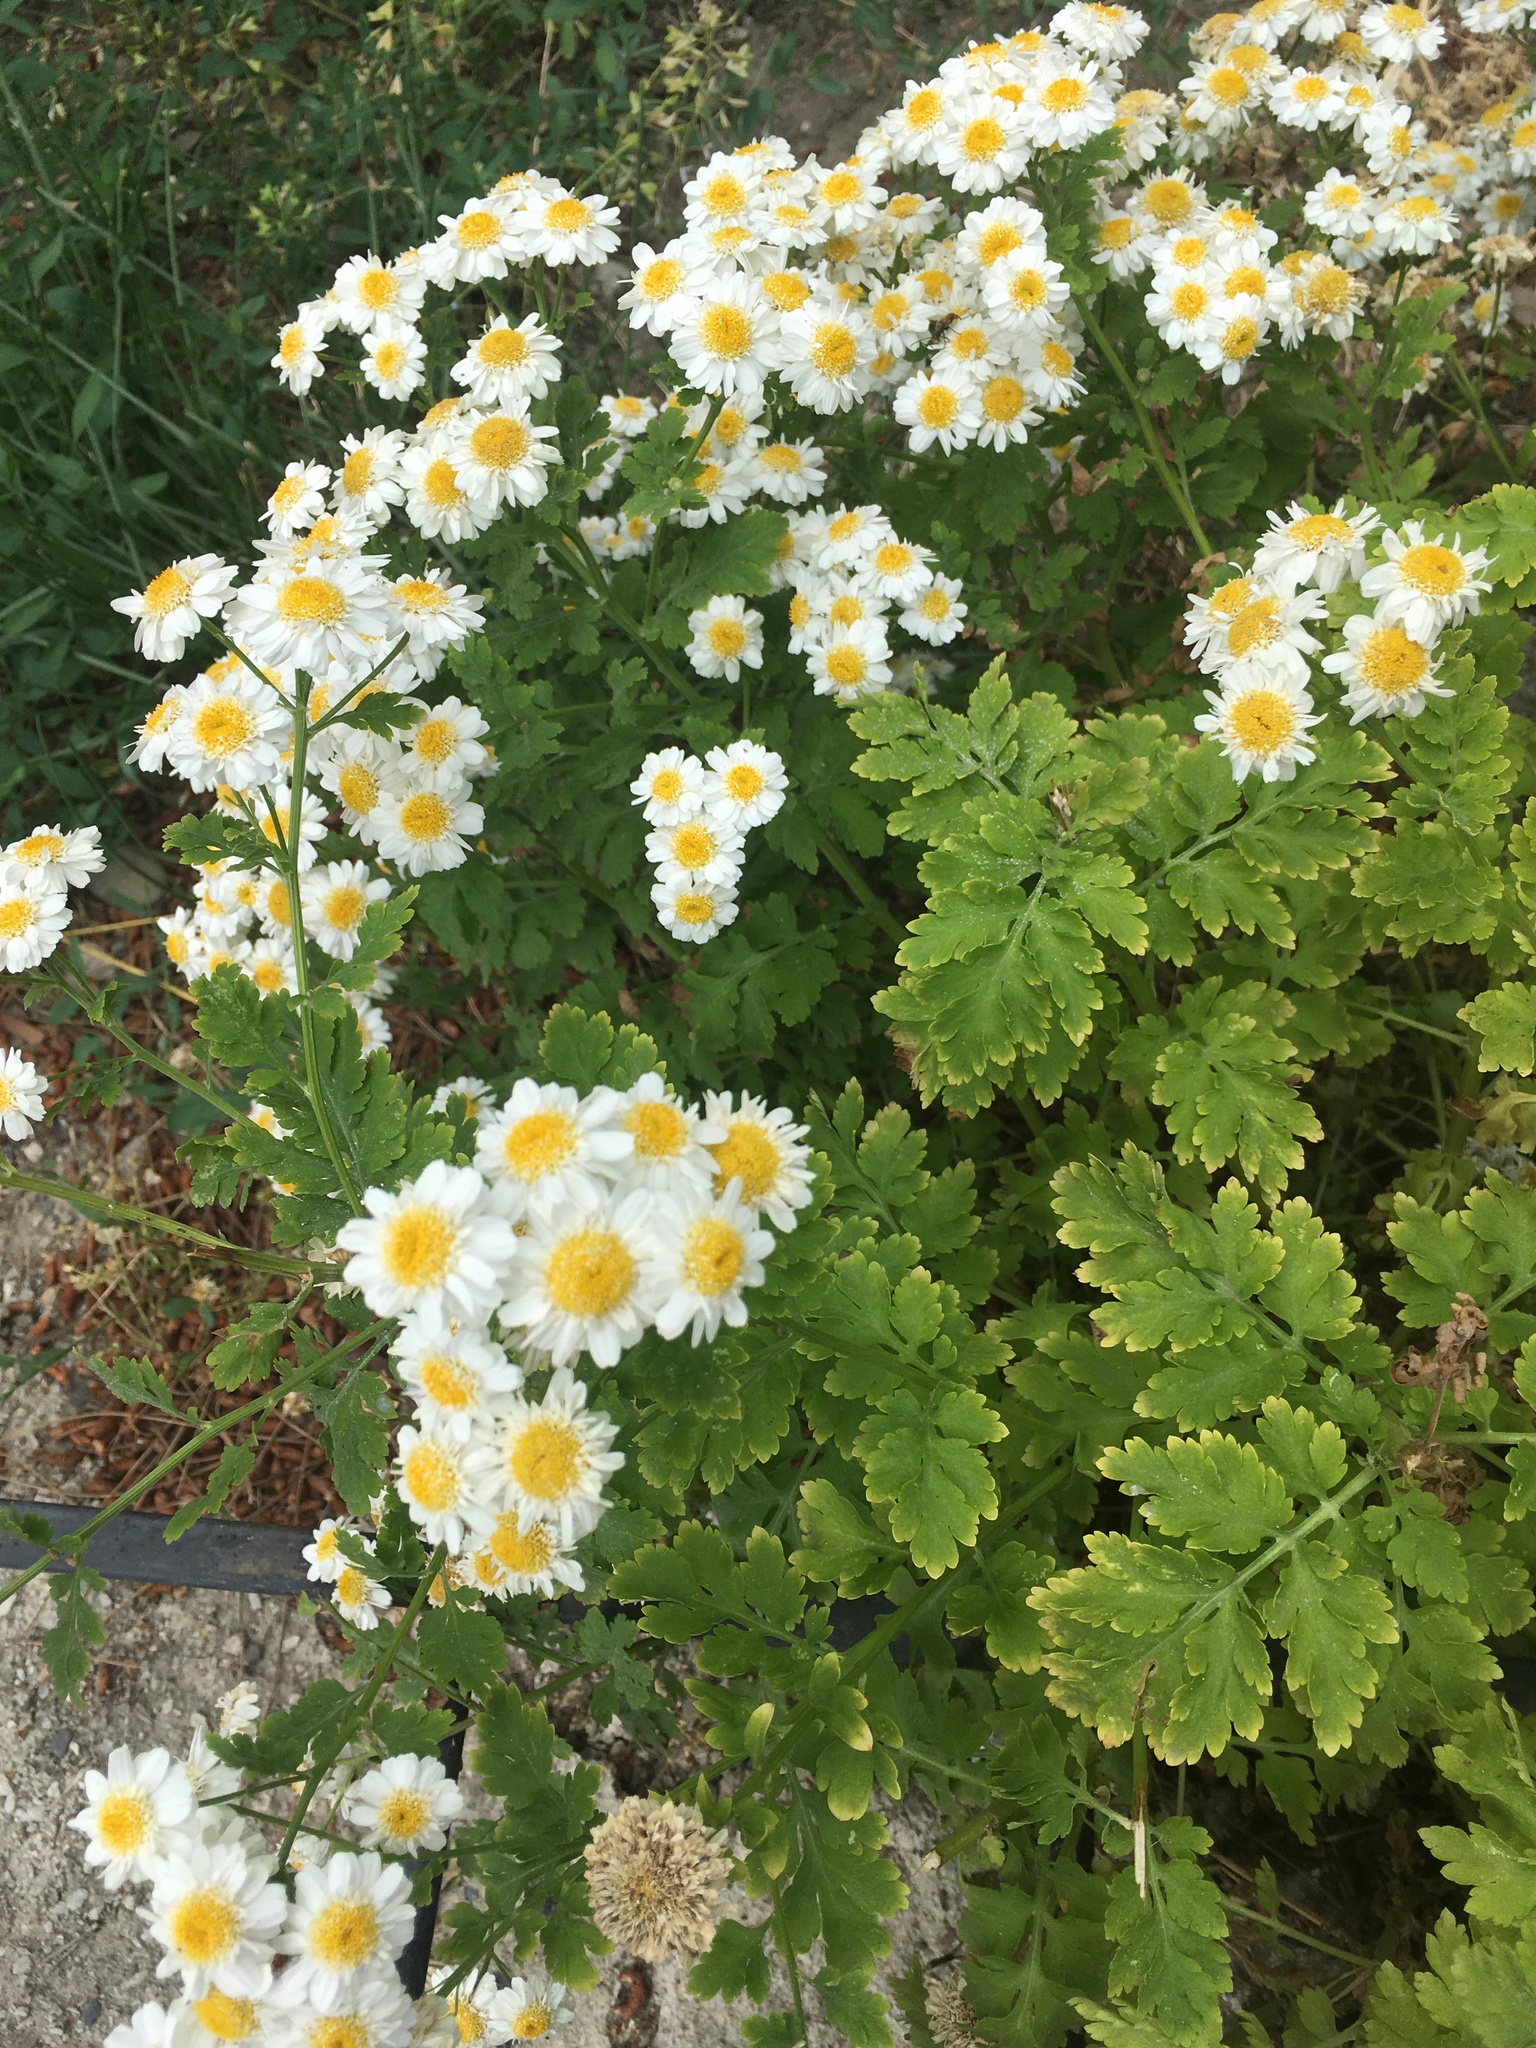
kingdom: Plantae
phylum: Tracheophyta
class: Magnoliopsida
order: Asterales
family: Asteraceae
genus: Tanacetum
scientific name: Tanacetum parthenium
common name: Feverfew
